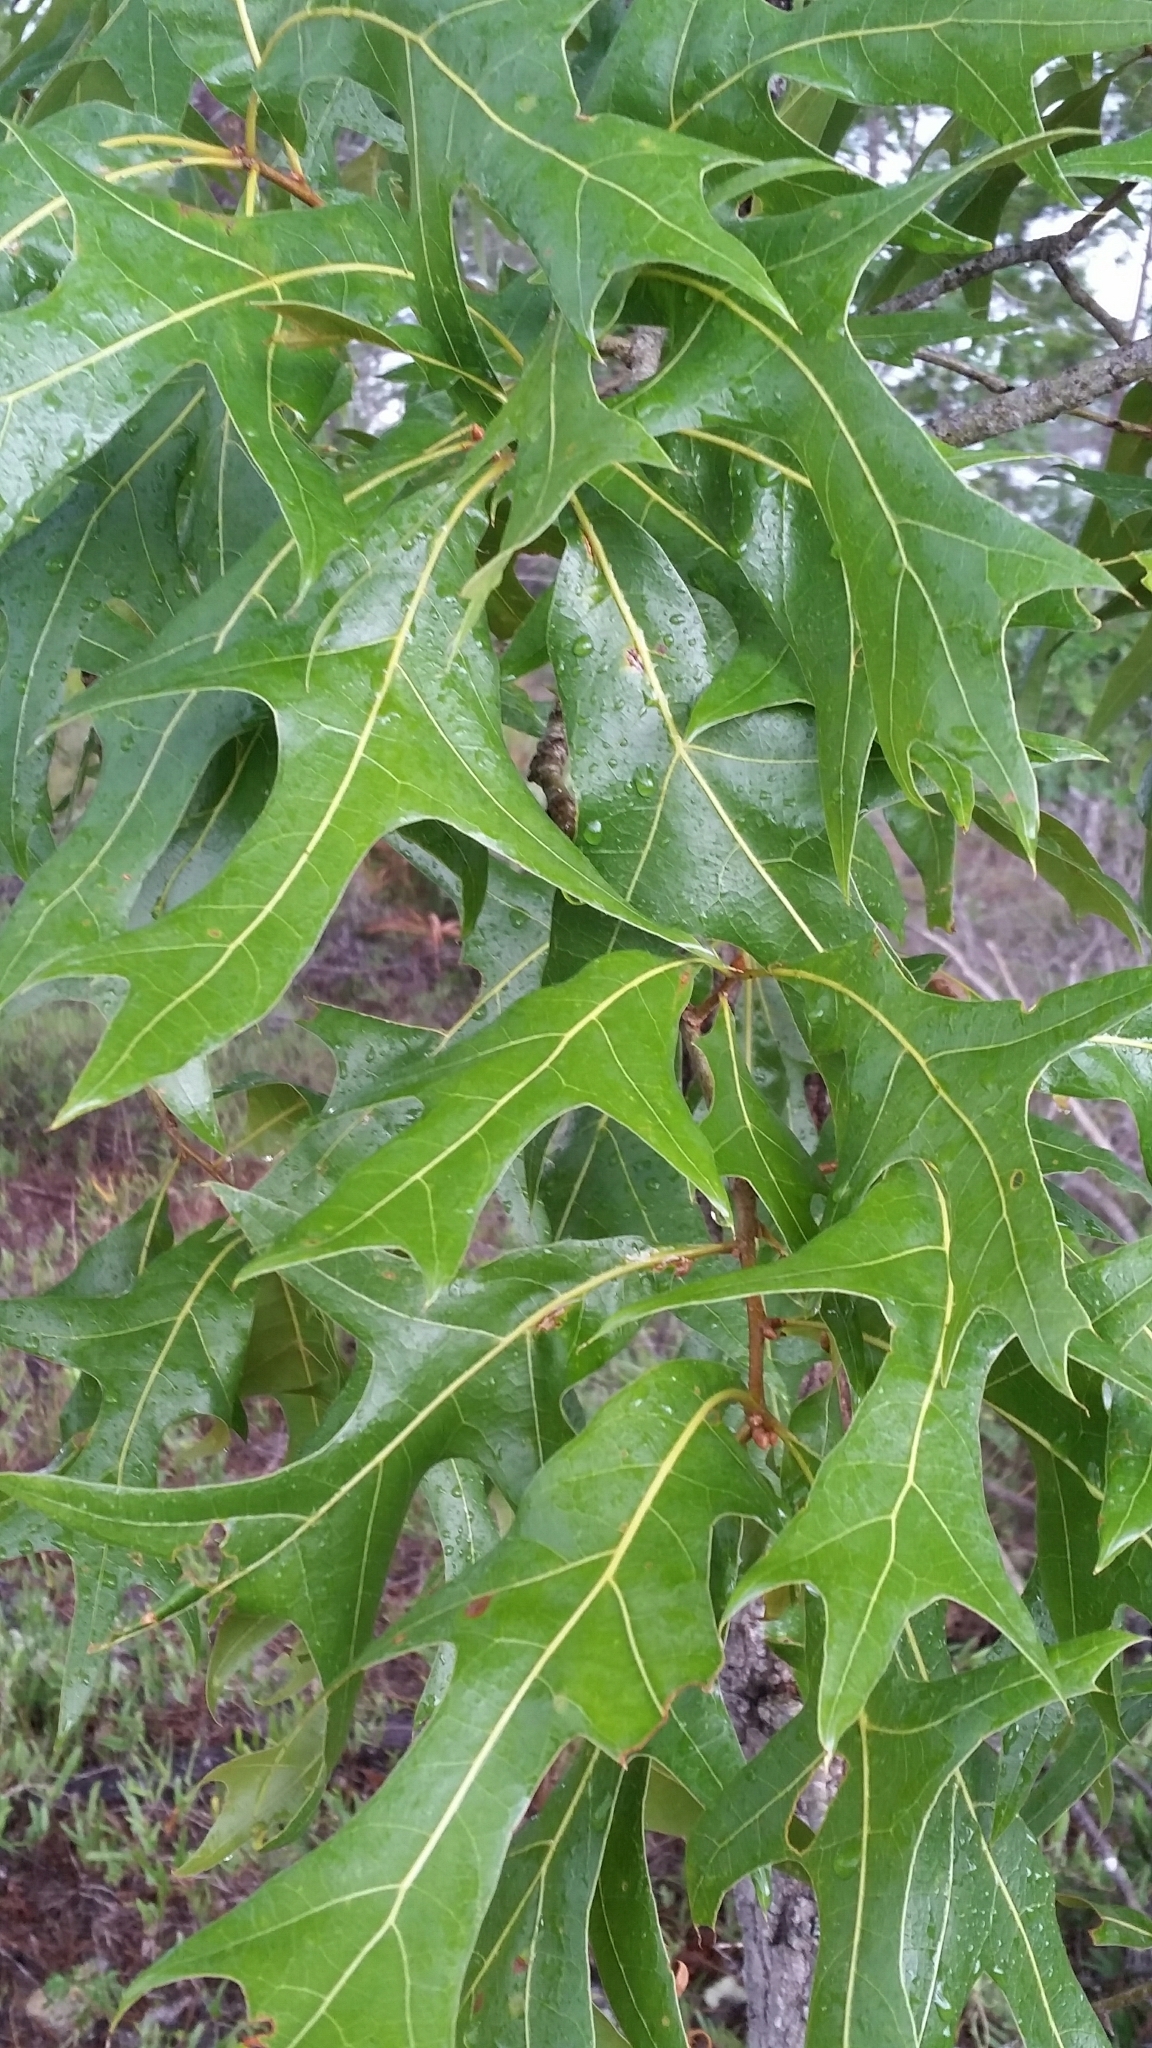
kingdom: Plantae
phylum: Tracheophyta
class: Magnoliopsida
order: Fagales
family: Fagaceae
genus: Quercus
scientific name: Quercus laevis
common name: Turkey oak
